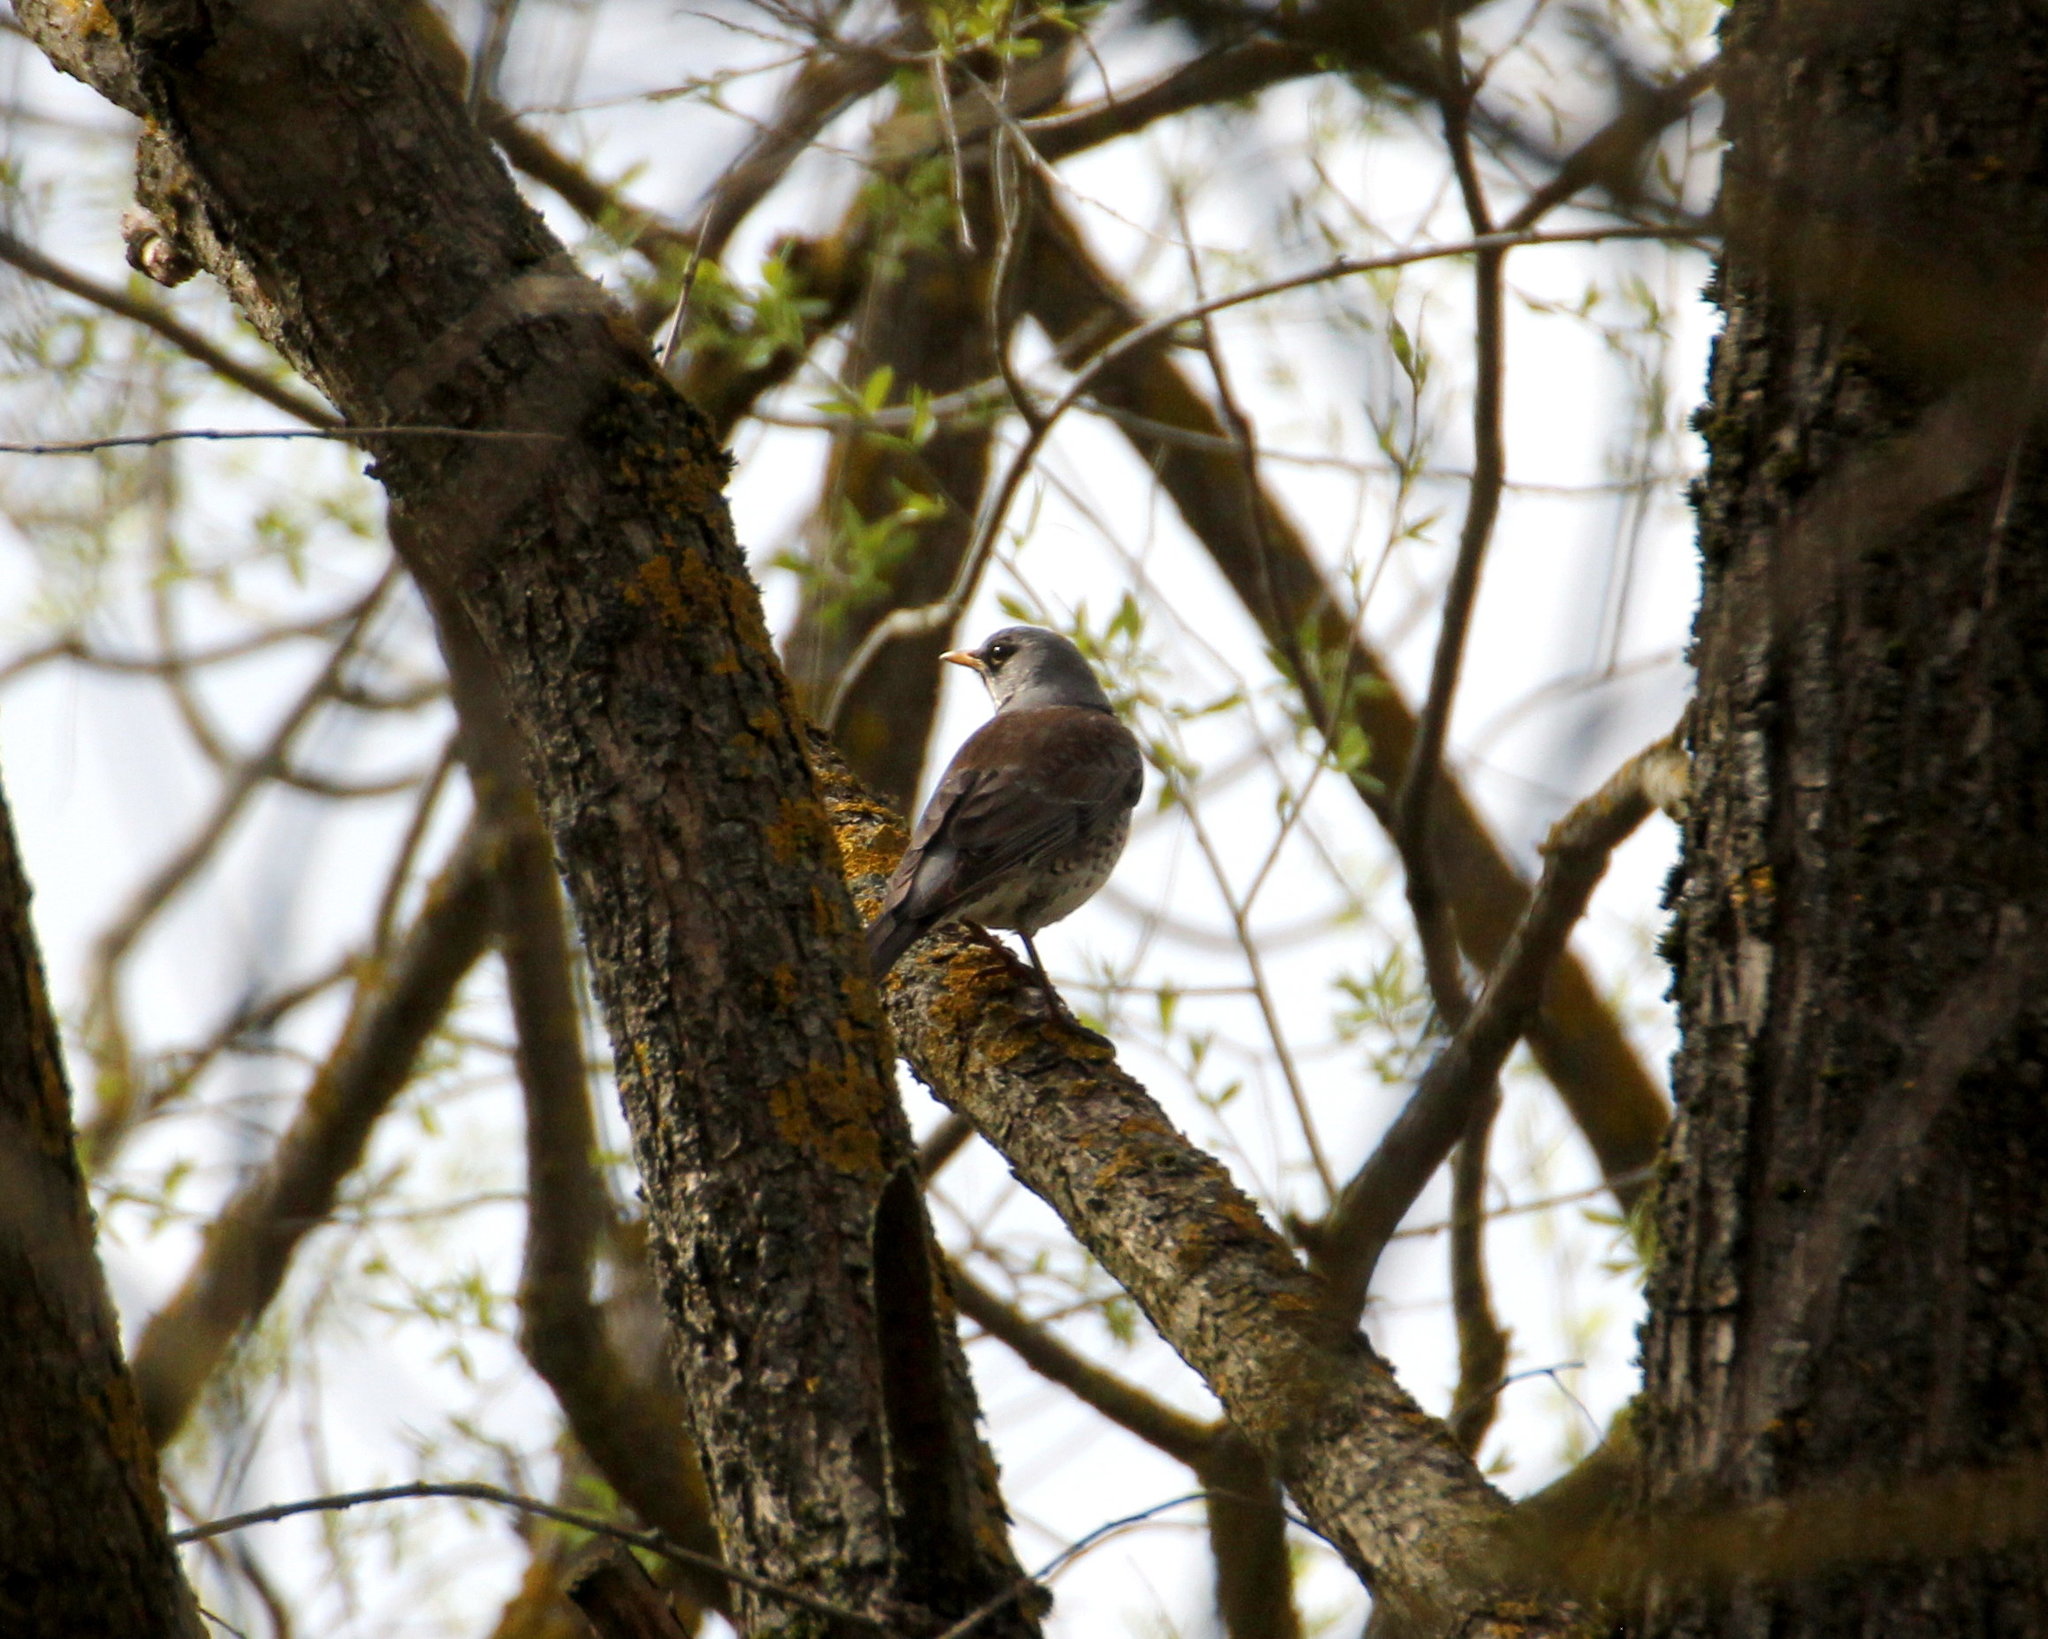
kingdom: Animalia
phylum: Chordata
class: Aves
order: Passeriformes
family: Turdidae
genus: Turdus
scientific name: Turdus pilaris
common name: Fieldfare
